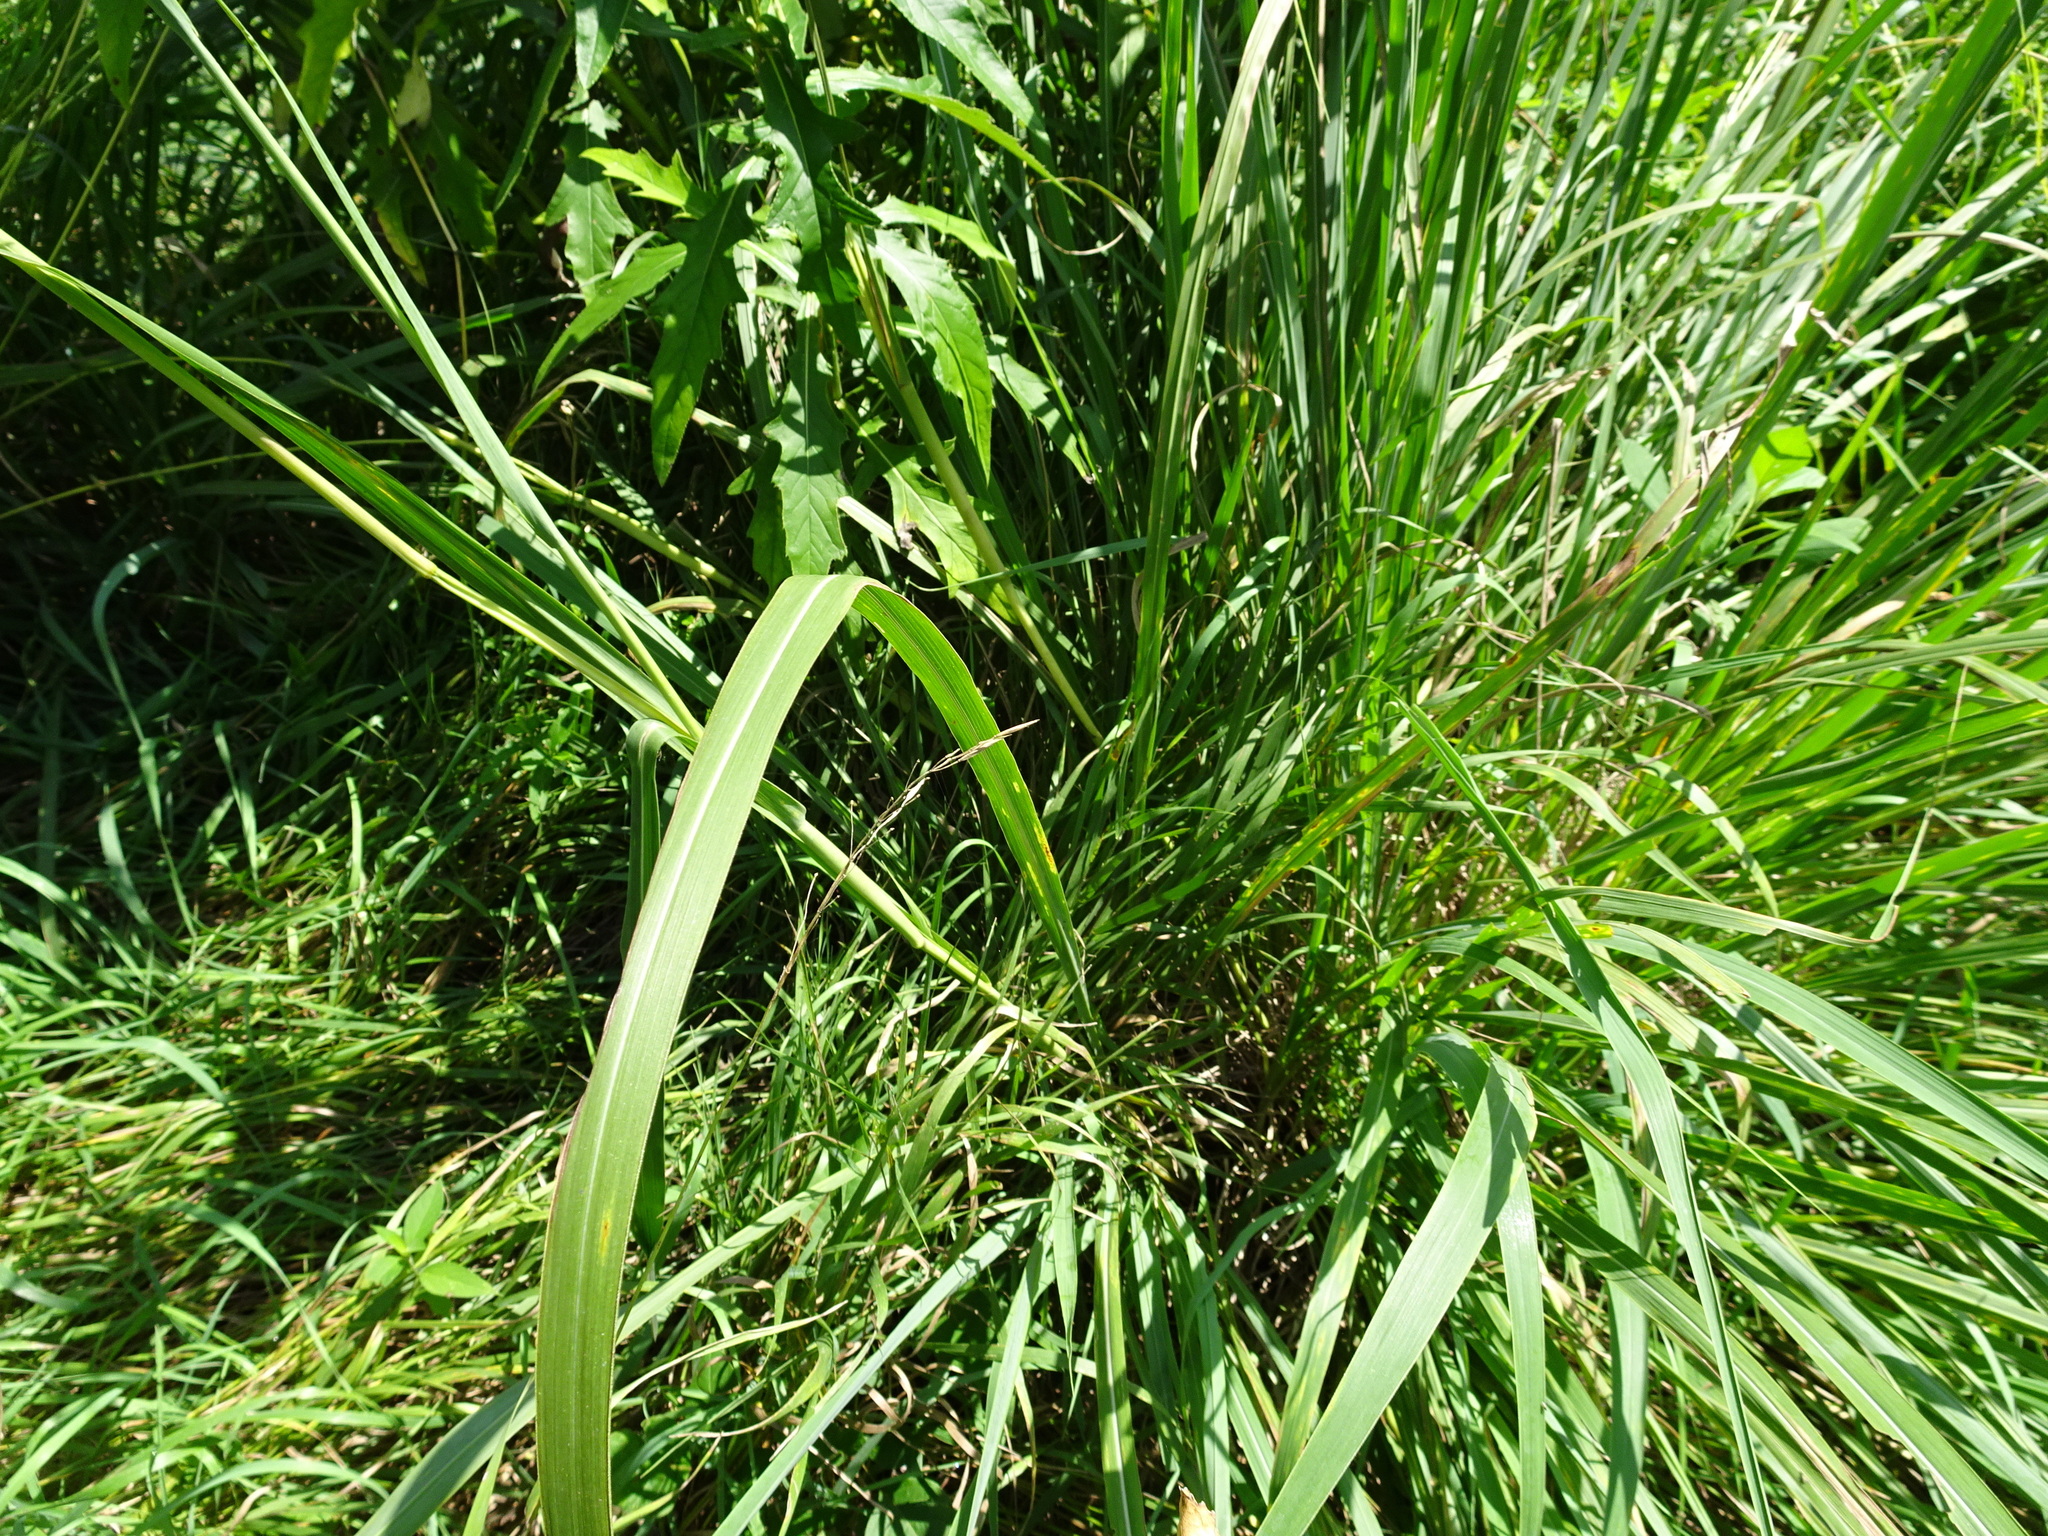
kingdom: Plantae
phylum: Tracheophyta
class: Liliopsida
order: Poales
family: Poaceae
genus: Tripsacum
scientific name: Tripsacum dactyloides
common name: Buffalo-grass
